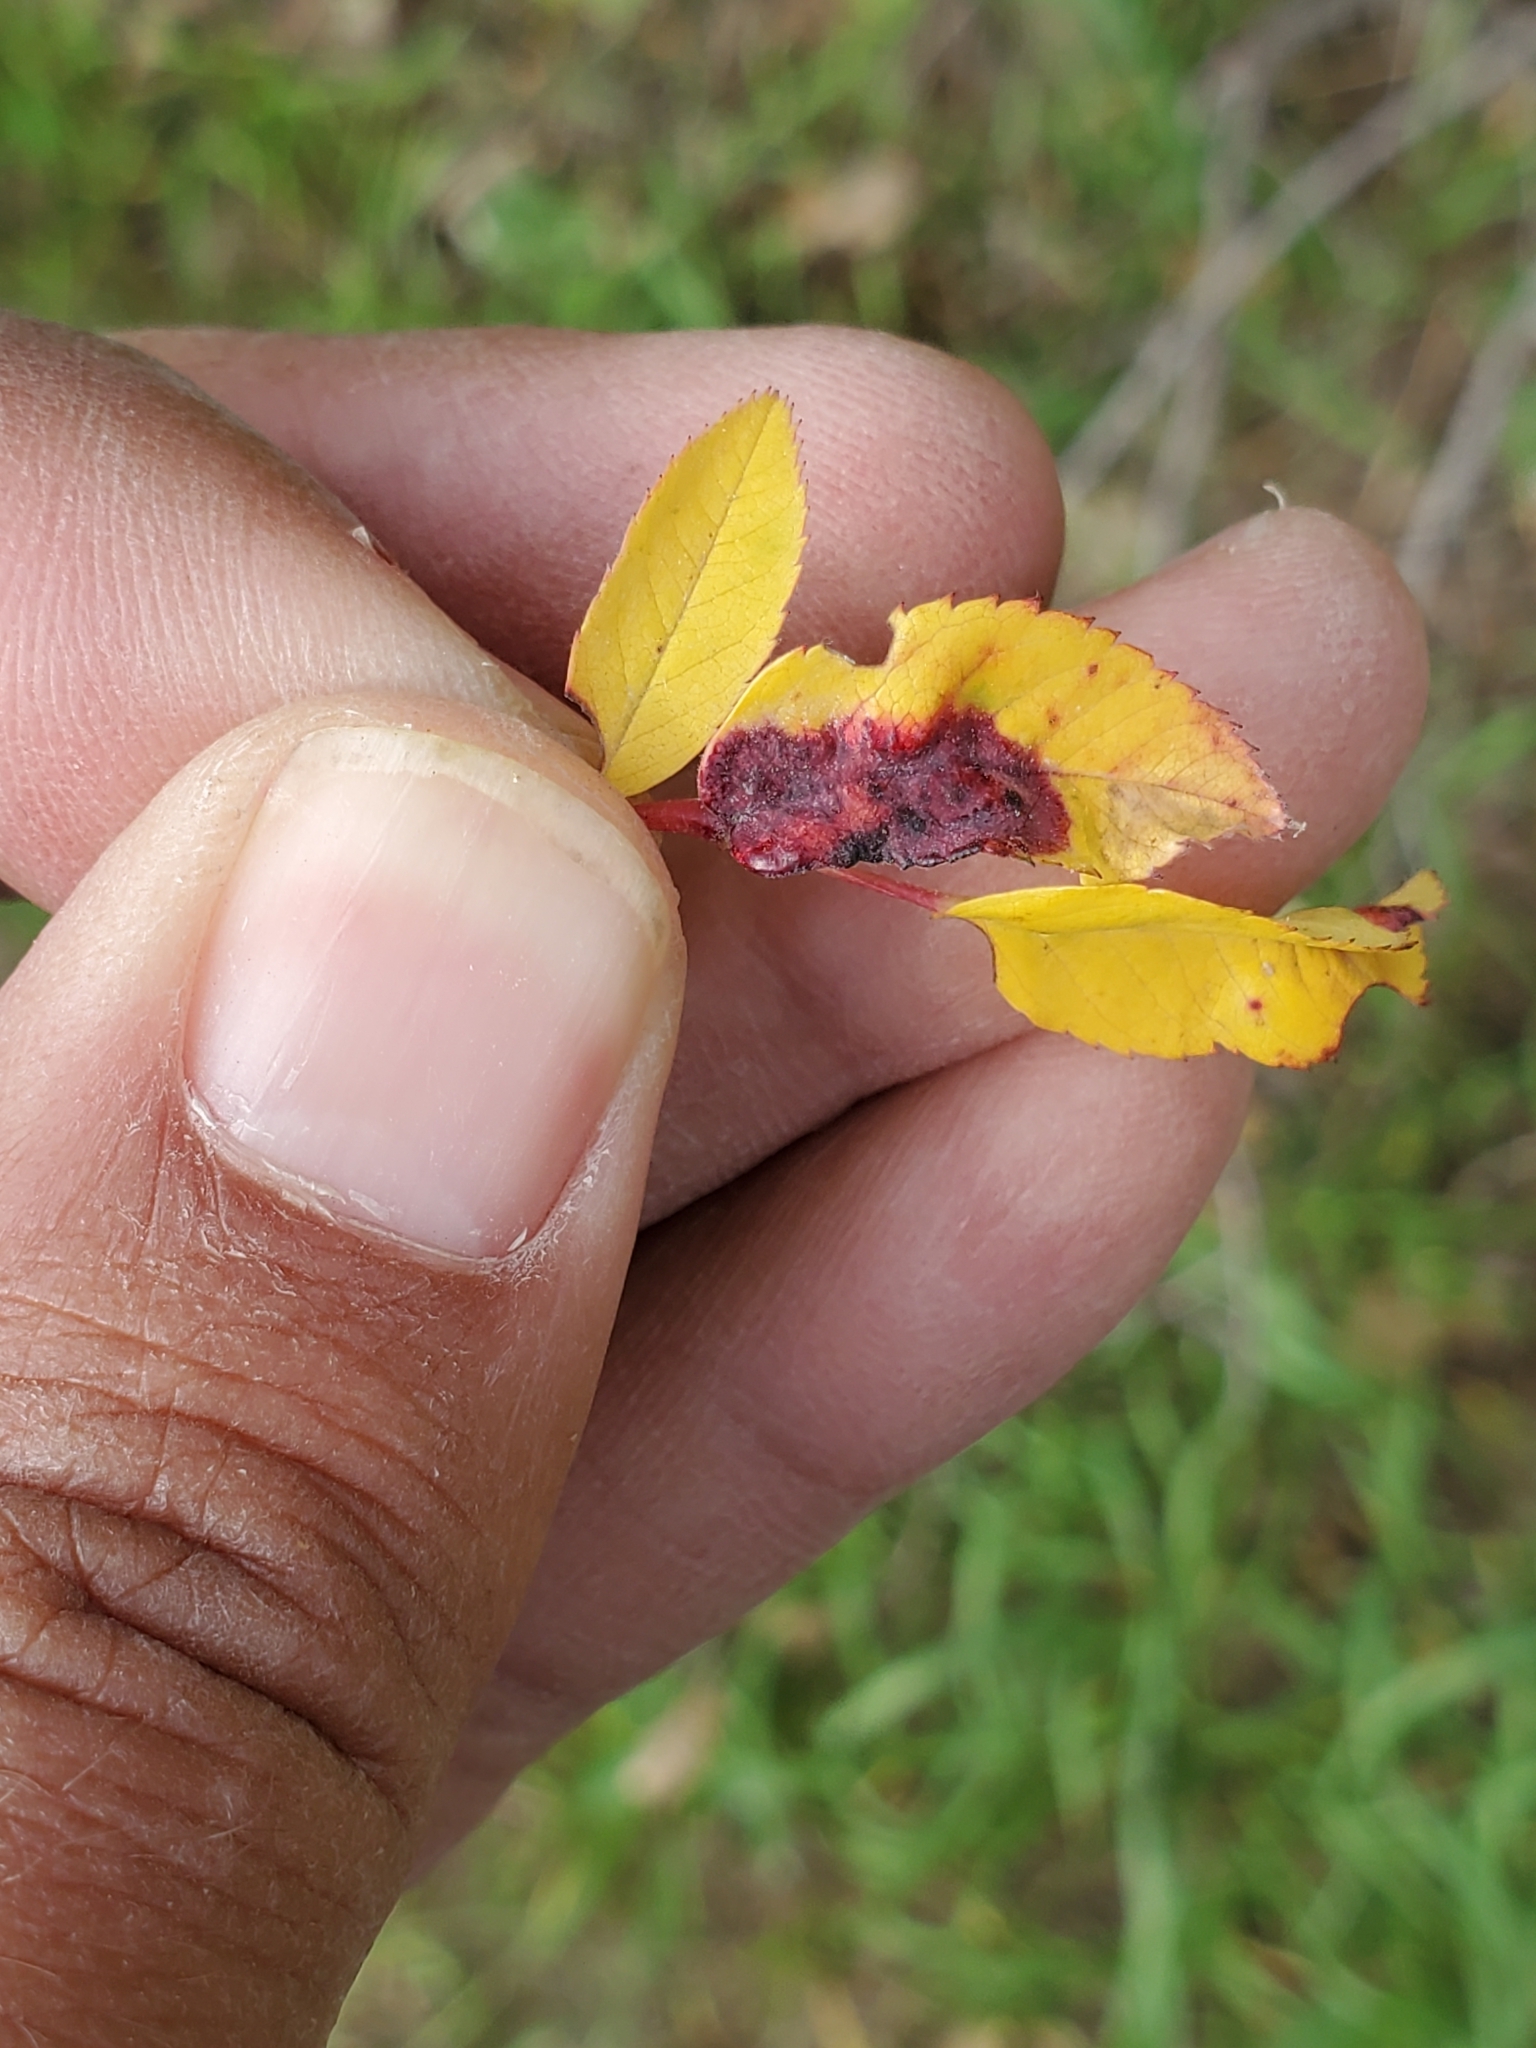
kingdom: Animalia
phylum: Arthropoda
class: Insecta
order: Hymenoptera
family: Cynipidae
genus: Diplolepis
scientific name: Diplolepis rosaefolii
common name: Blister-gall wasp
